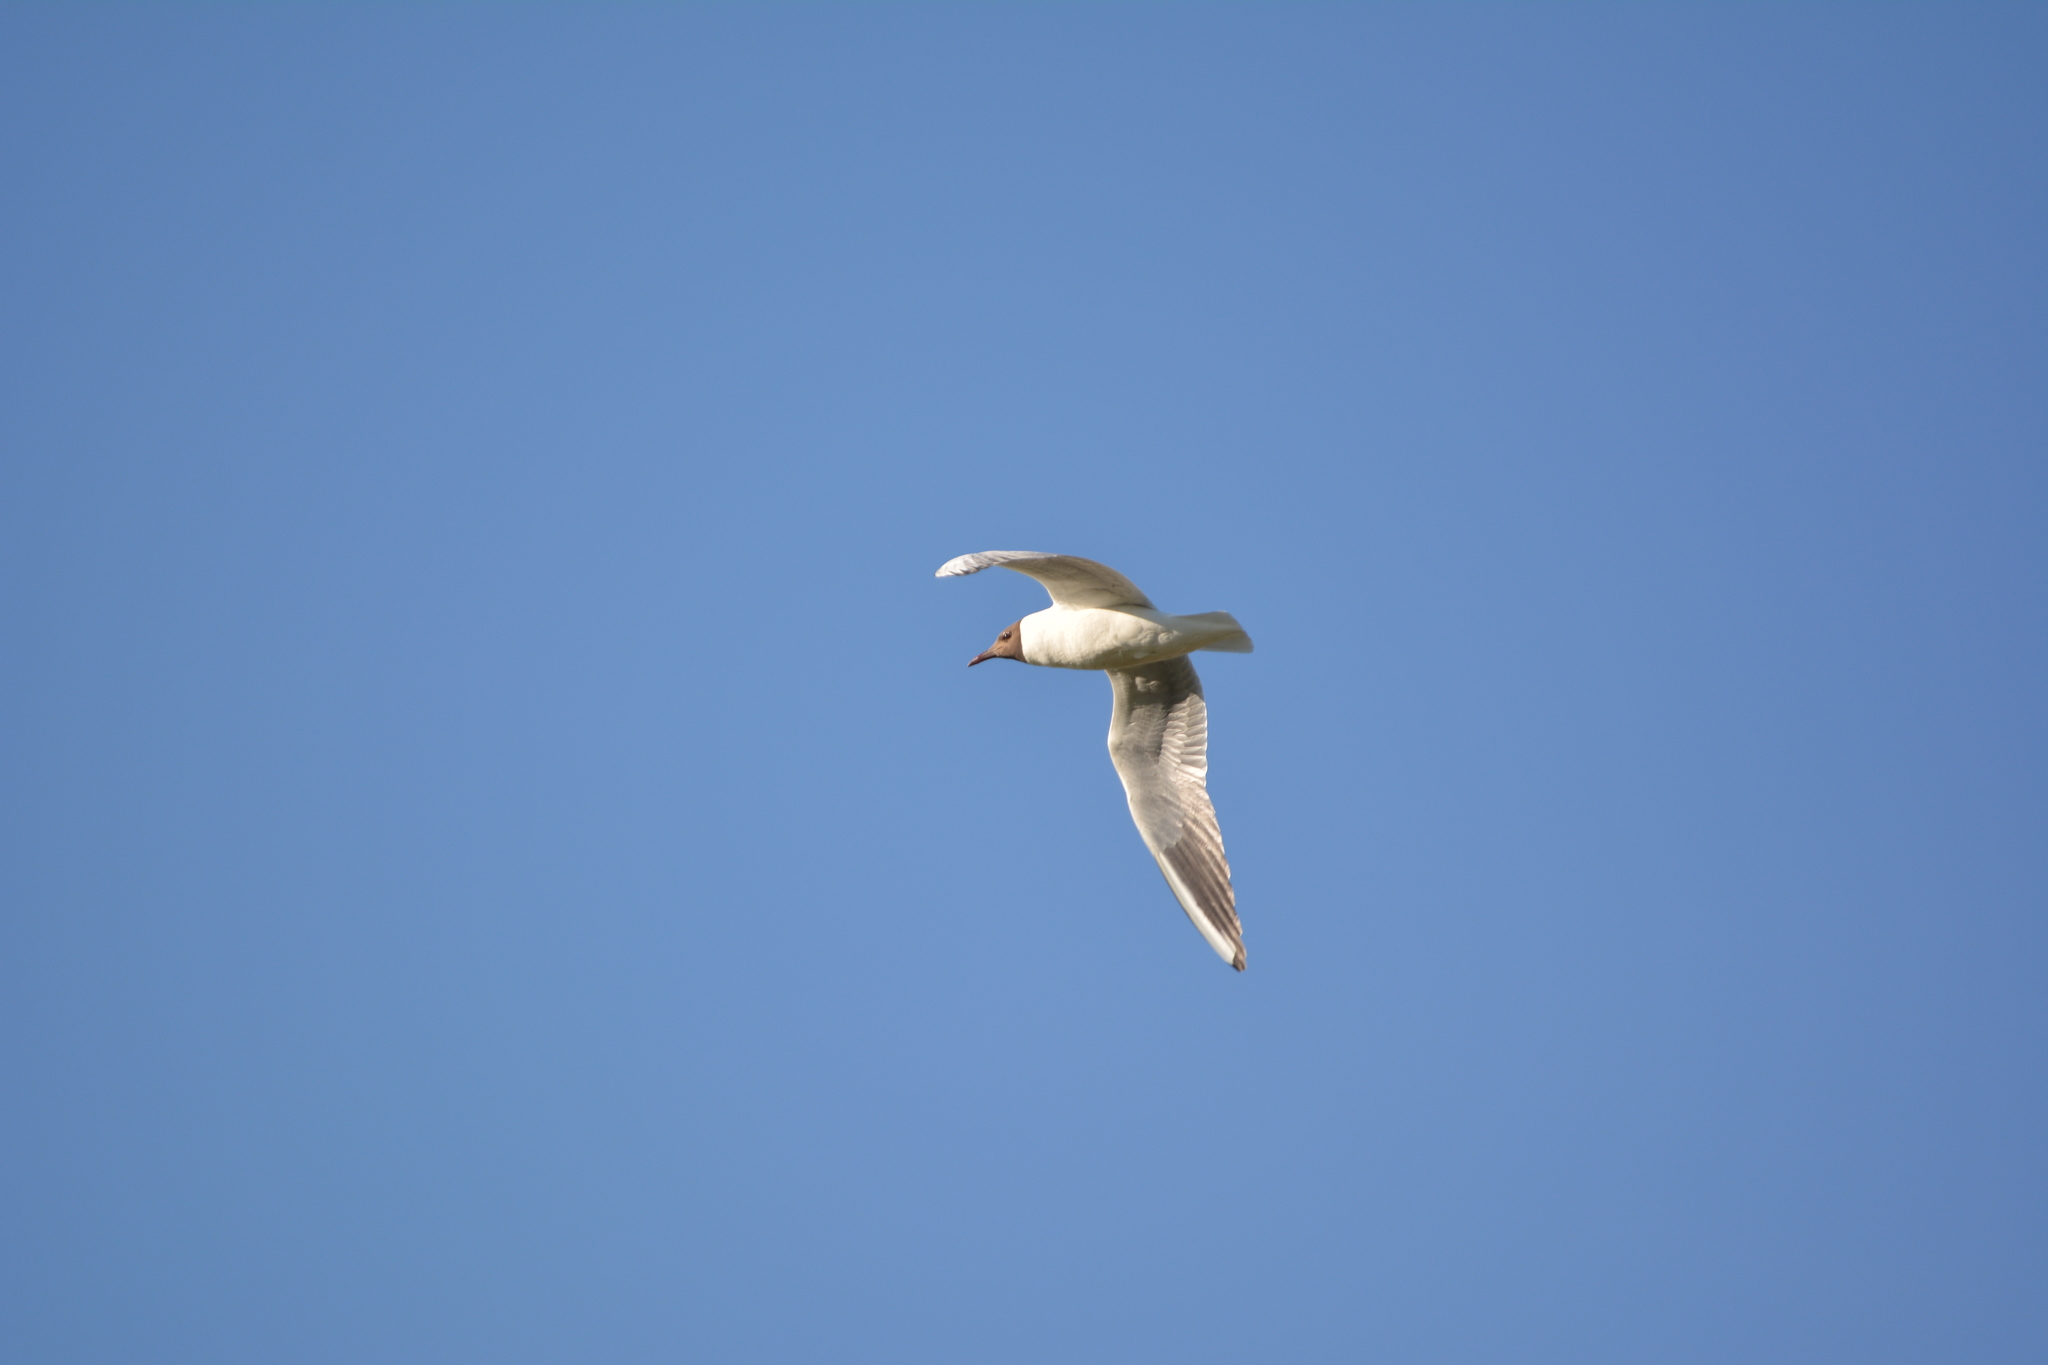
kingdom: Animalia
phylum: Chordata
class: Aves
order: Charadriiformes
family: Laridae
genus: Chroicocephalus
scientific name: Chroicocephalus ridibundus
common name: Black-headed gull
